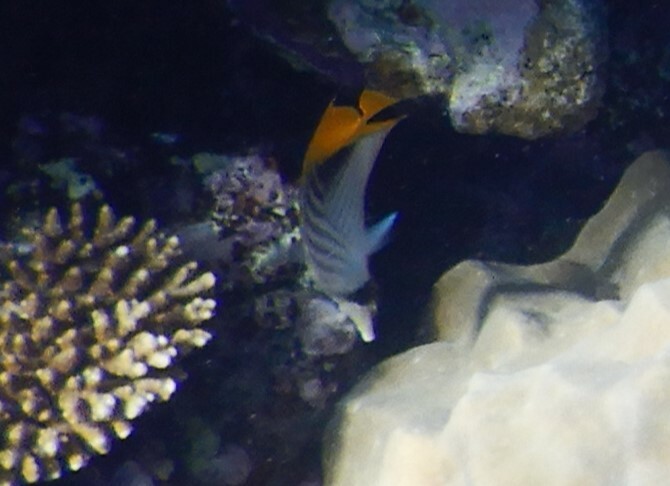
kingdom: Animalia
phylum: Chordata
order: Perciformes
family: Chaetodontidae
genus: Chaetodon
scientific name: Chaetodon auriga
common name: Threadfin butterflyfish
